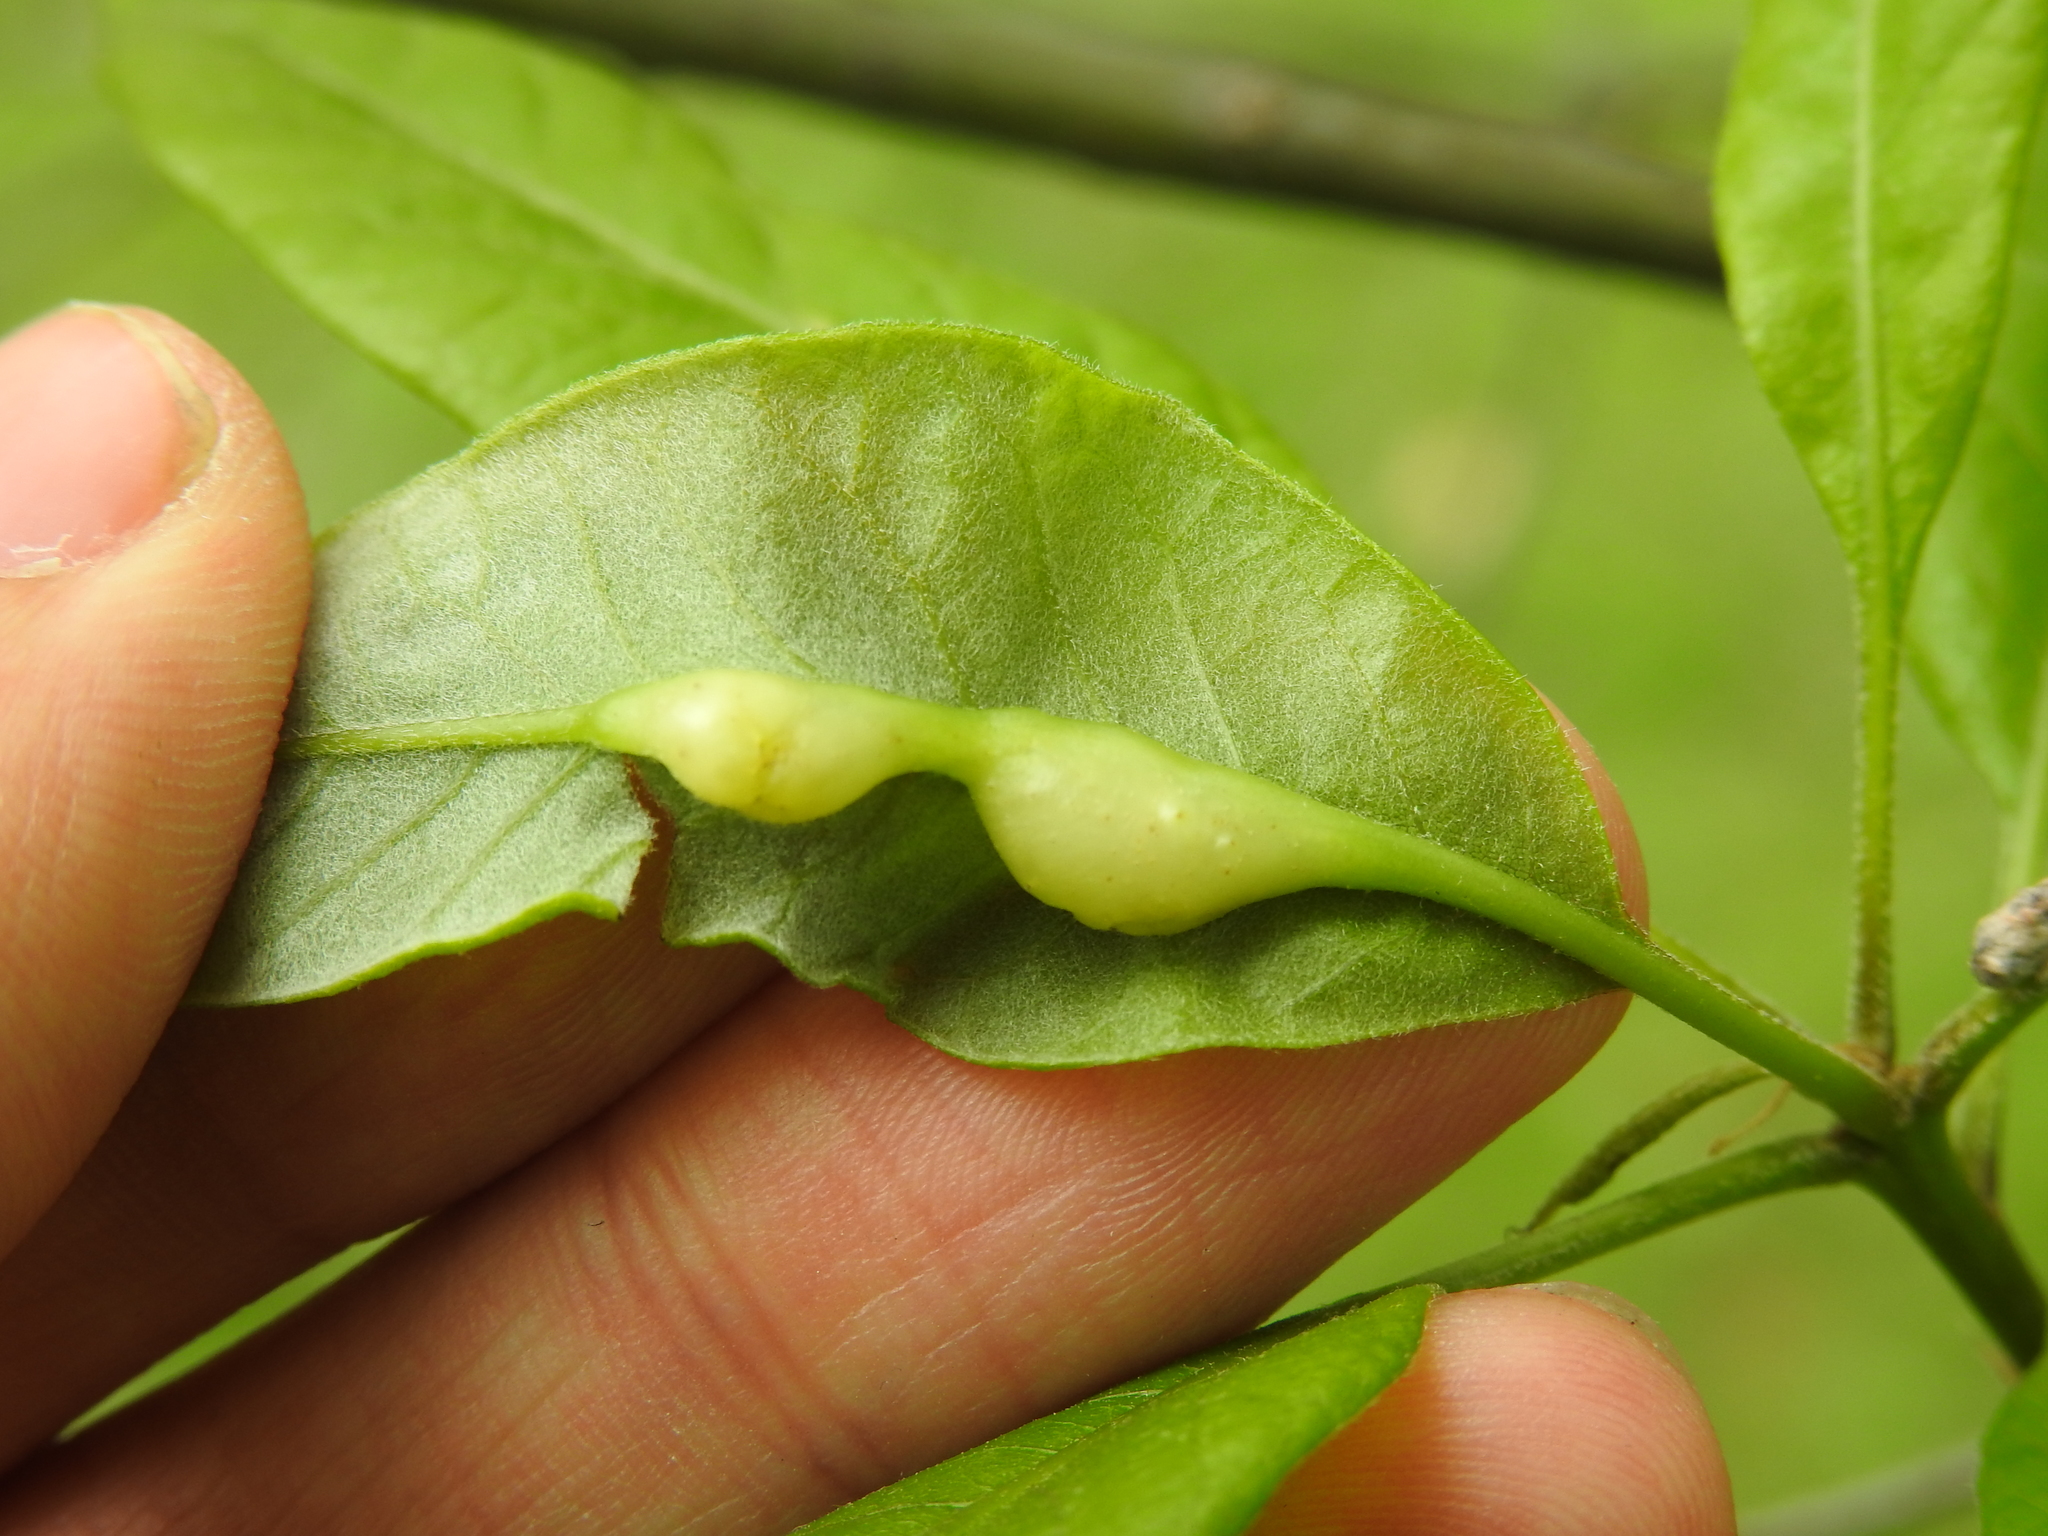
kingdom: Animalia
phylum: Arthropoda
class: Insecta
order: Hymenoptera
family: Cynipidae
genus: Callirhytis
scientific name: Callirhytis
